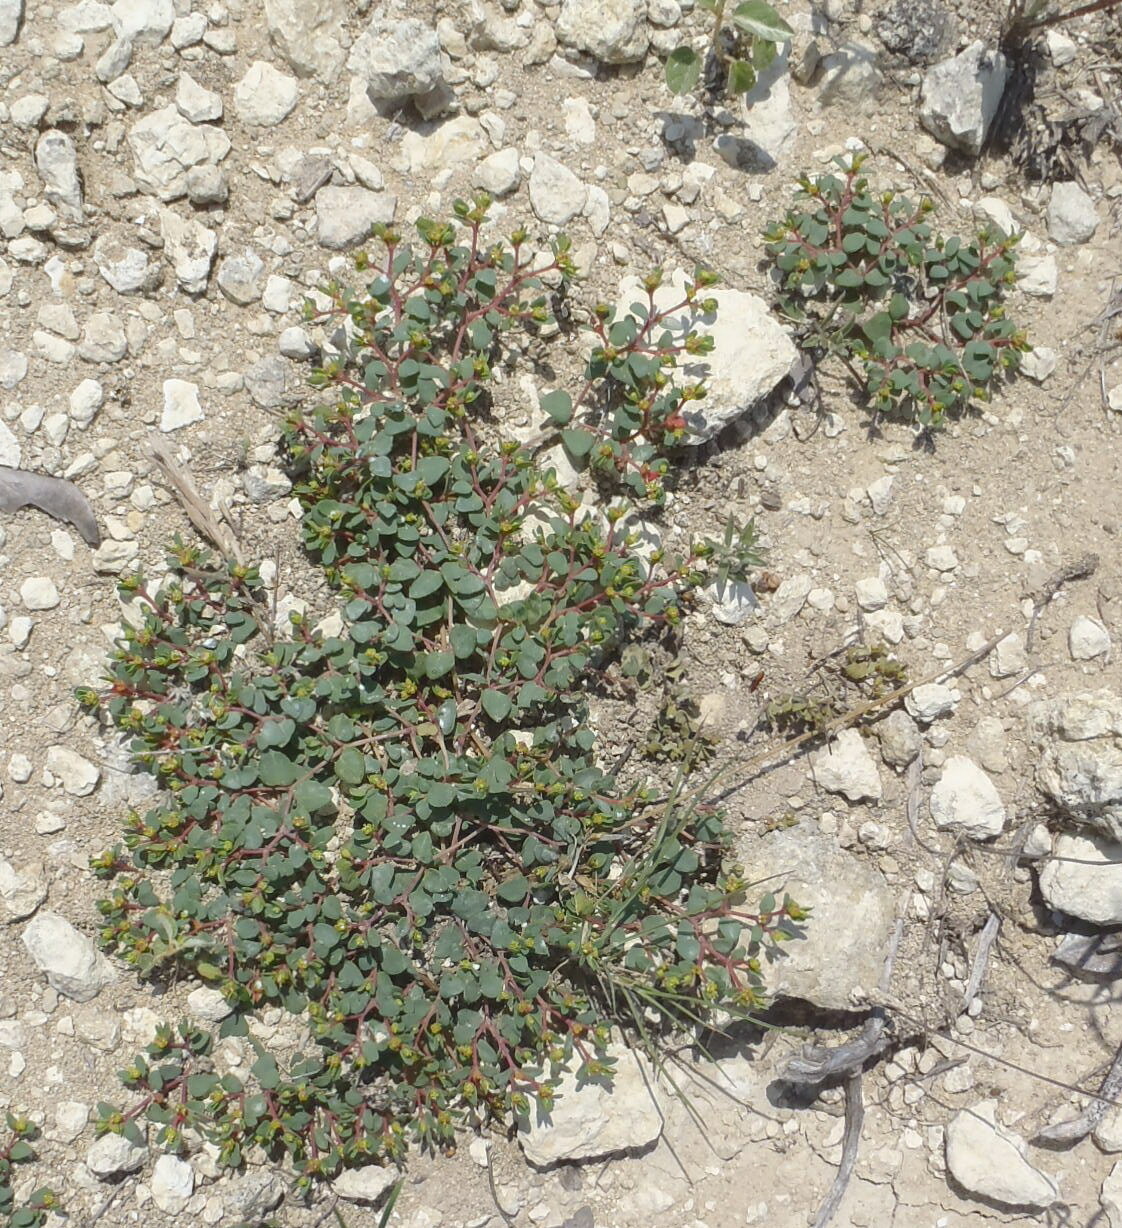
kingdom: Plantae
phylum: Tracheophyta
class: Magnoliopsida
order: Malpighiales
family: Euphorbiaceae
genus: Euphorbia
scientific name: Euphorbia fendleri
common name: Fendler's euphorbia
